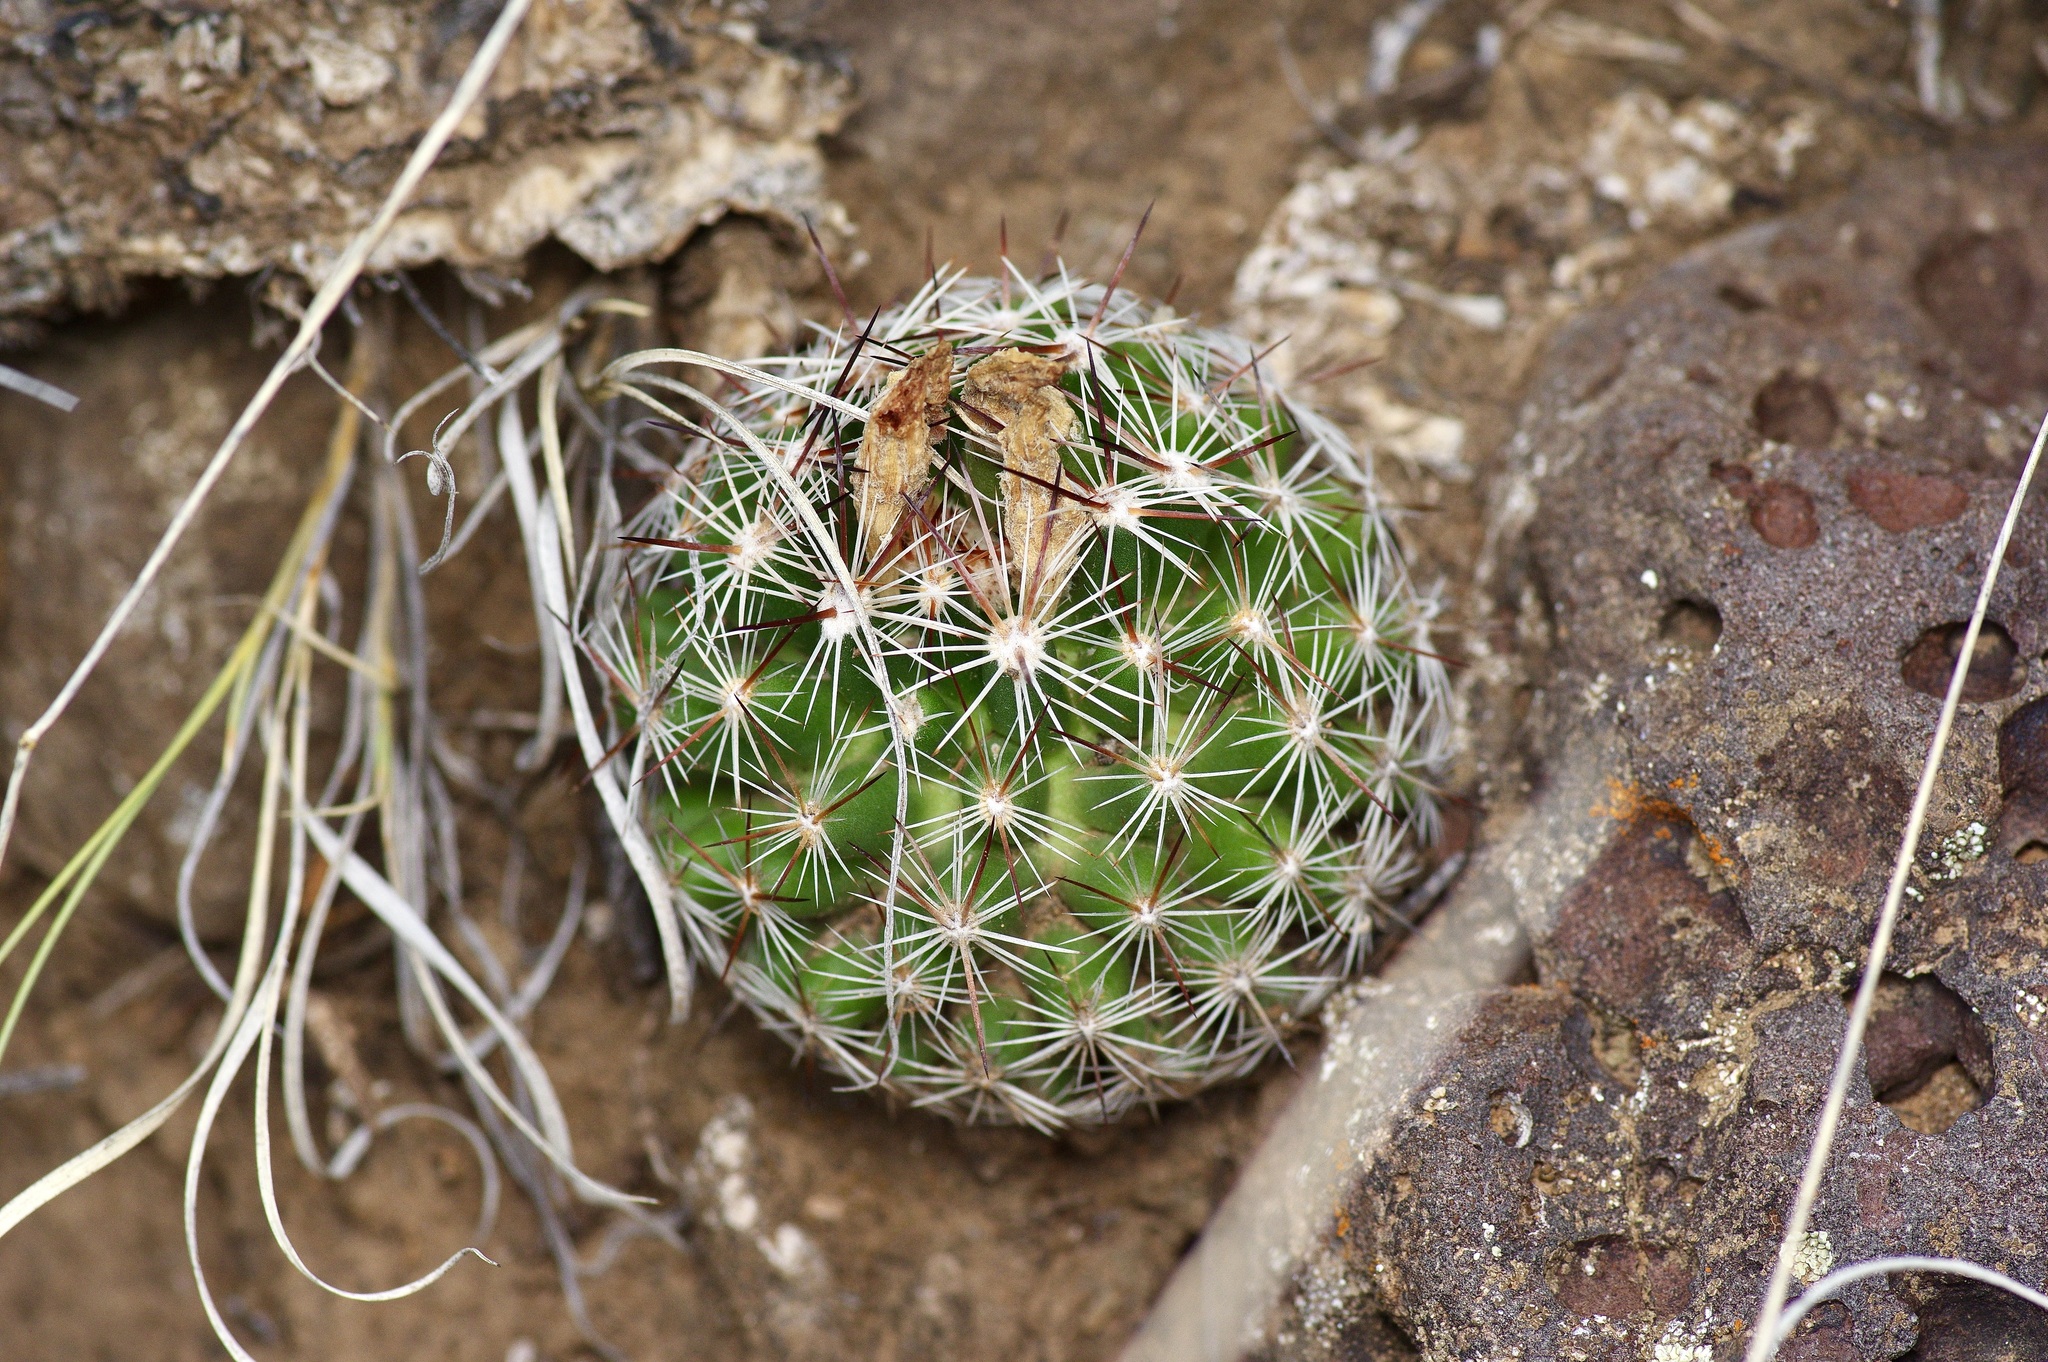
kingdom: Plantae
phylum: Tracheophyta
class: Magnoliopsida
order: Caryophyllales
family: Cactaceae
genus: Pelecyphora
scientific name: Pelecyphora vivipara
